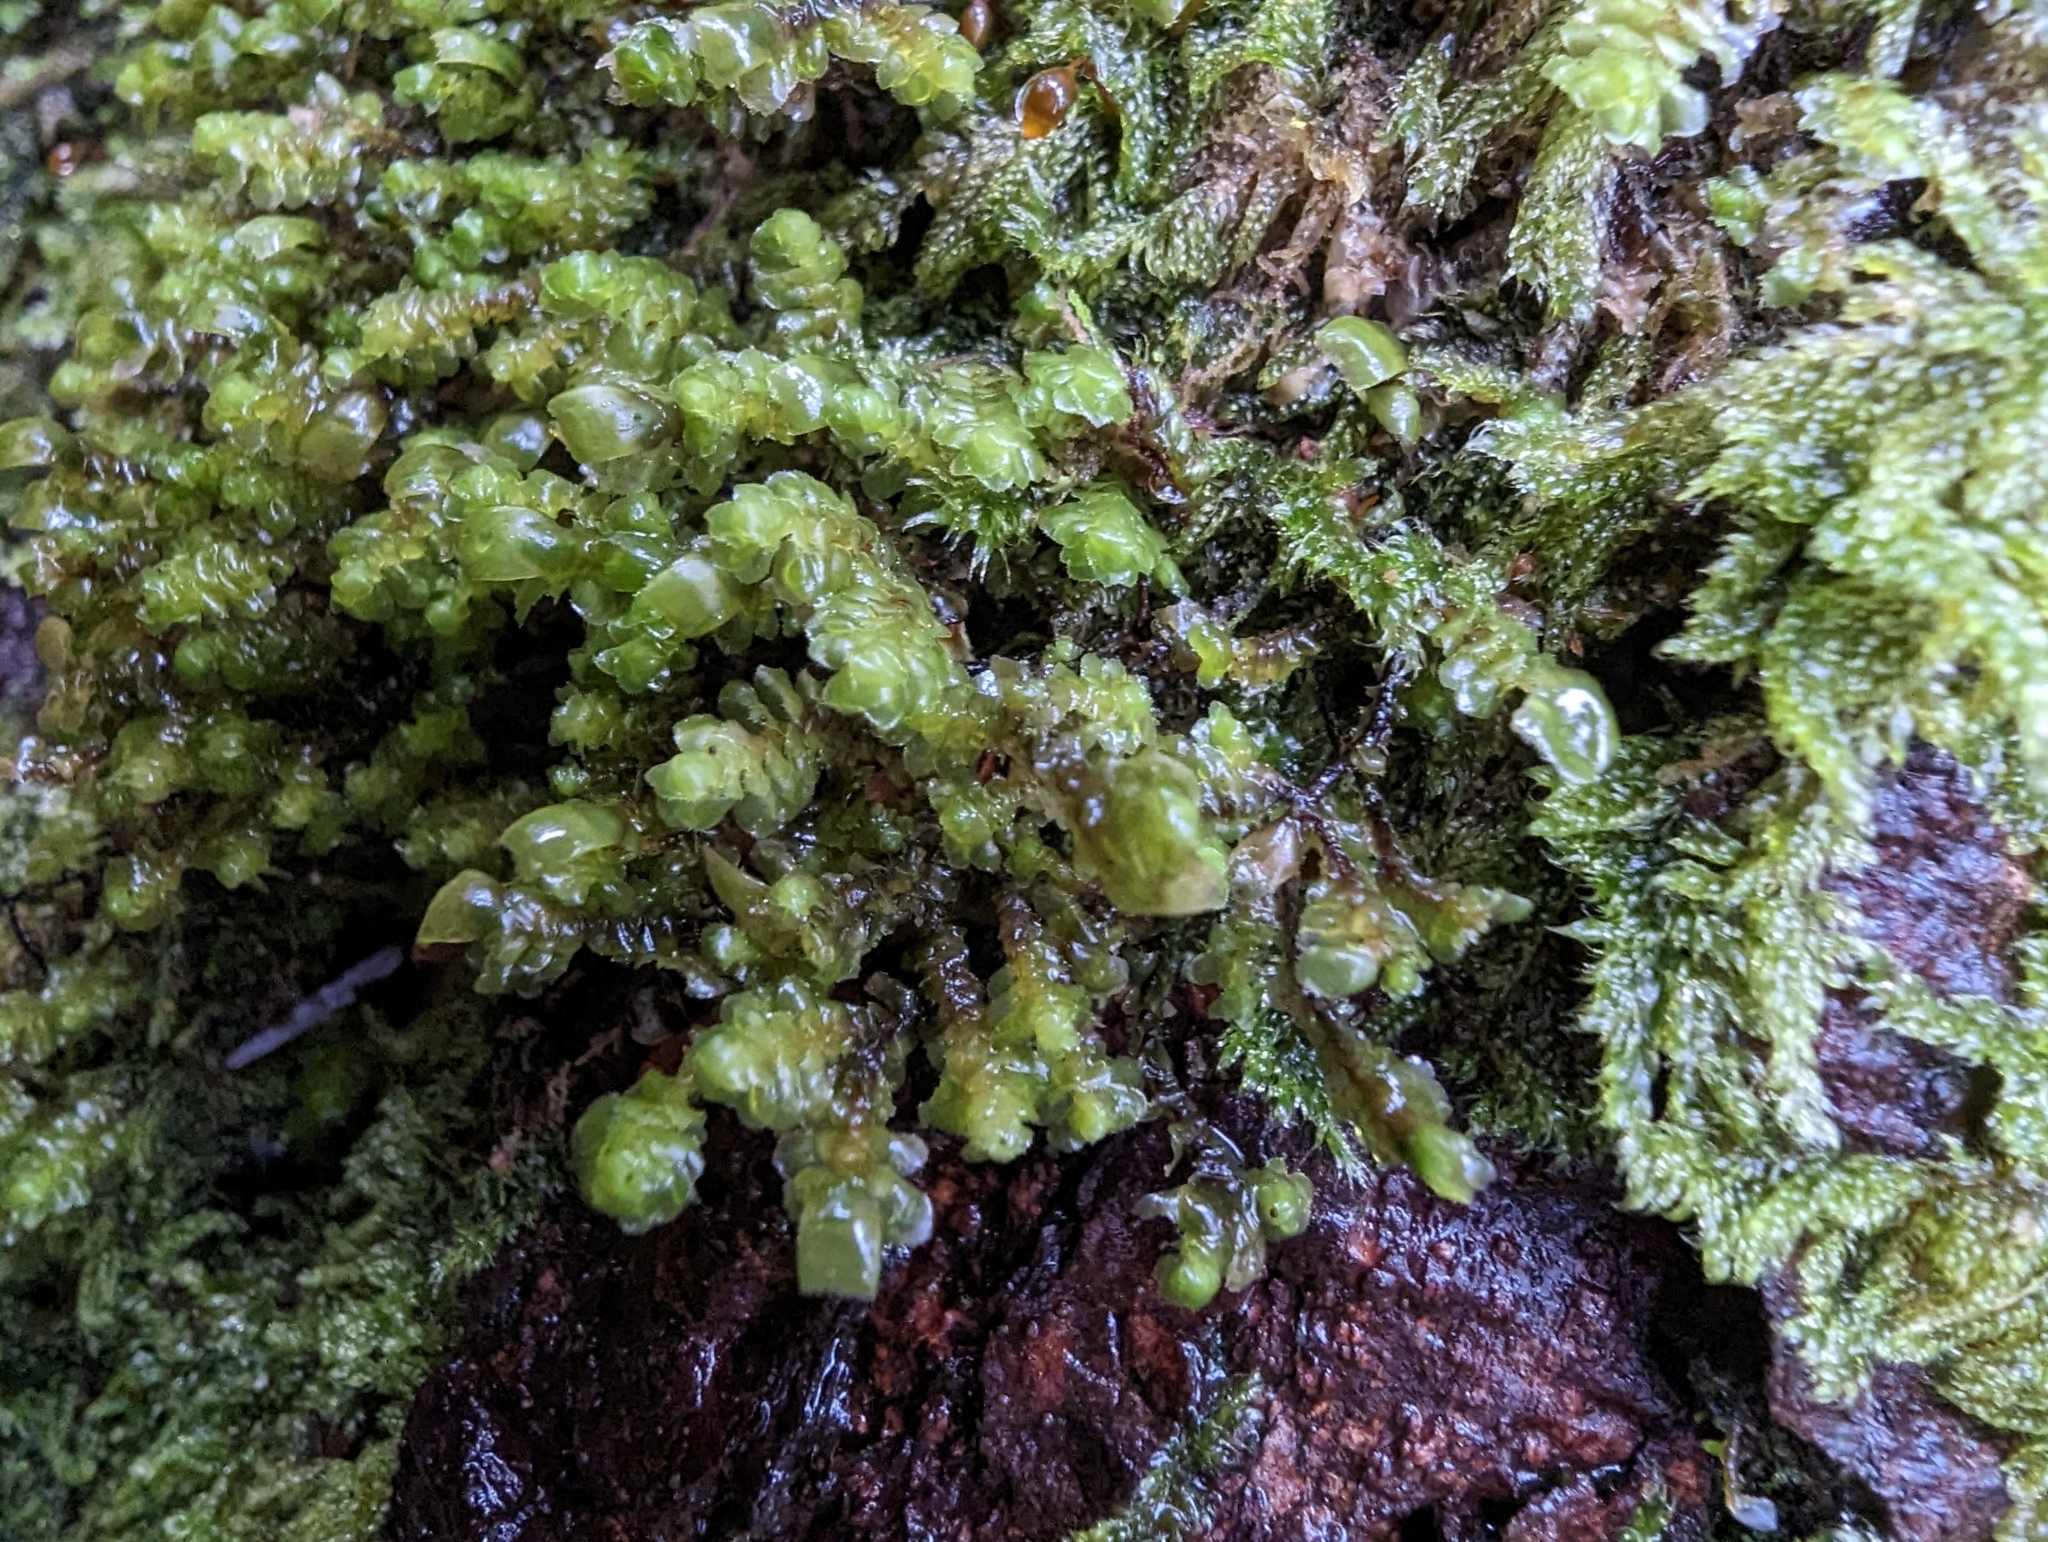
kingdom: Plantae
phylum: Marchantiophyta
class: Jungermanniopsida
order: Jungermanniales
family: Scapaniaceae
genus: Scapania
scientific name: Scapania bolanderi
